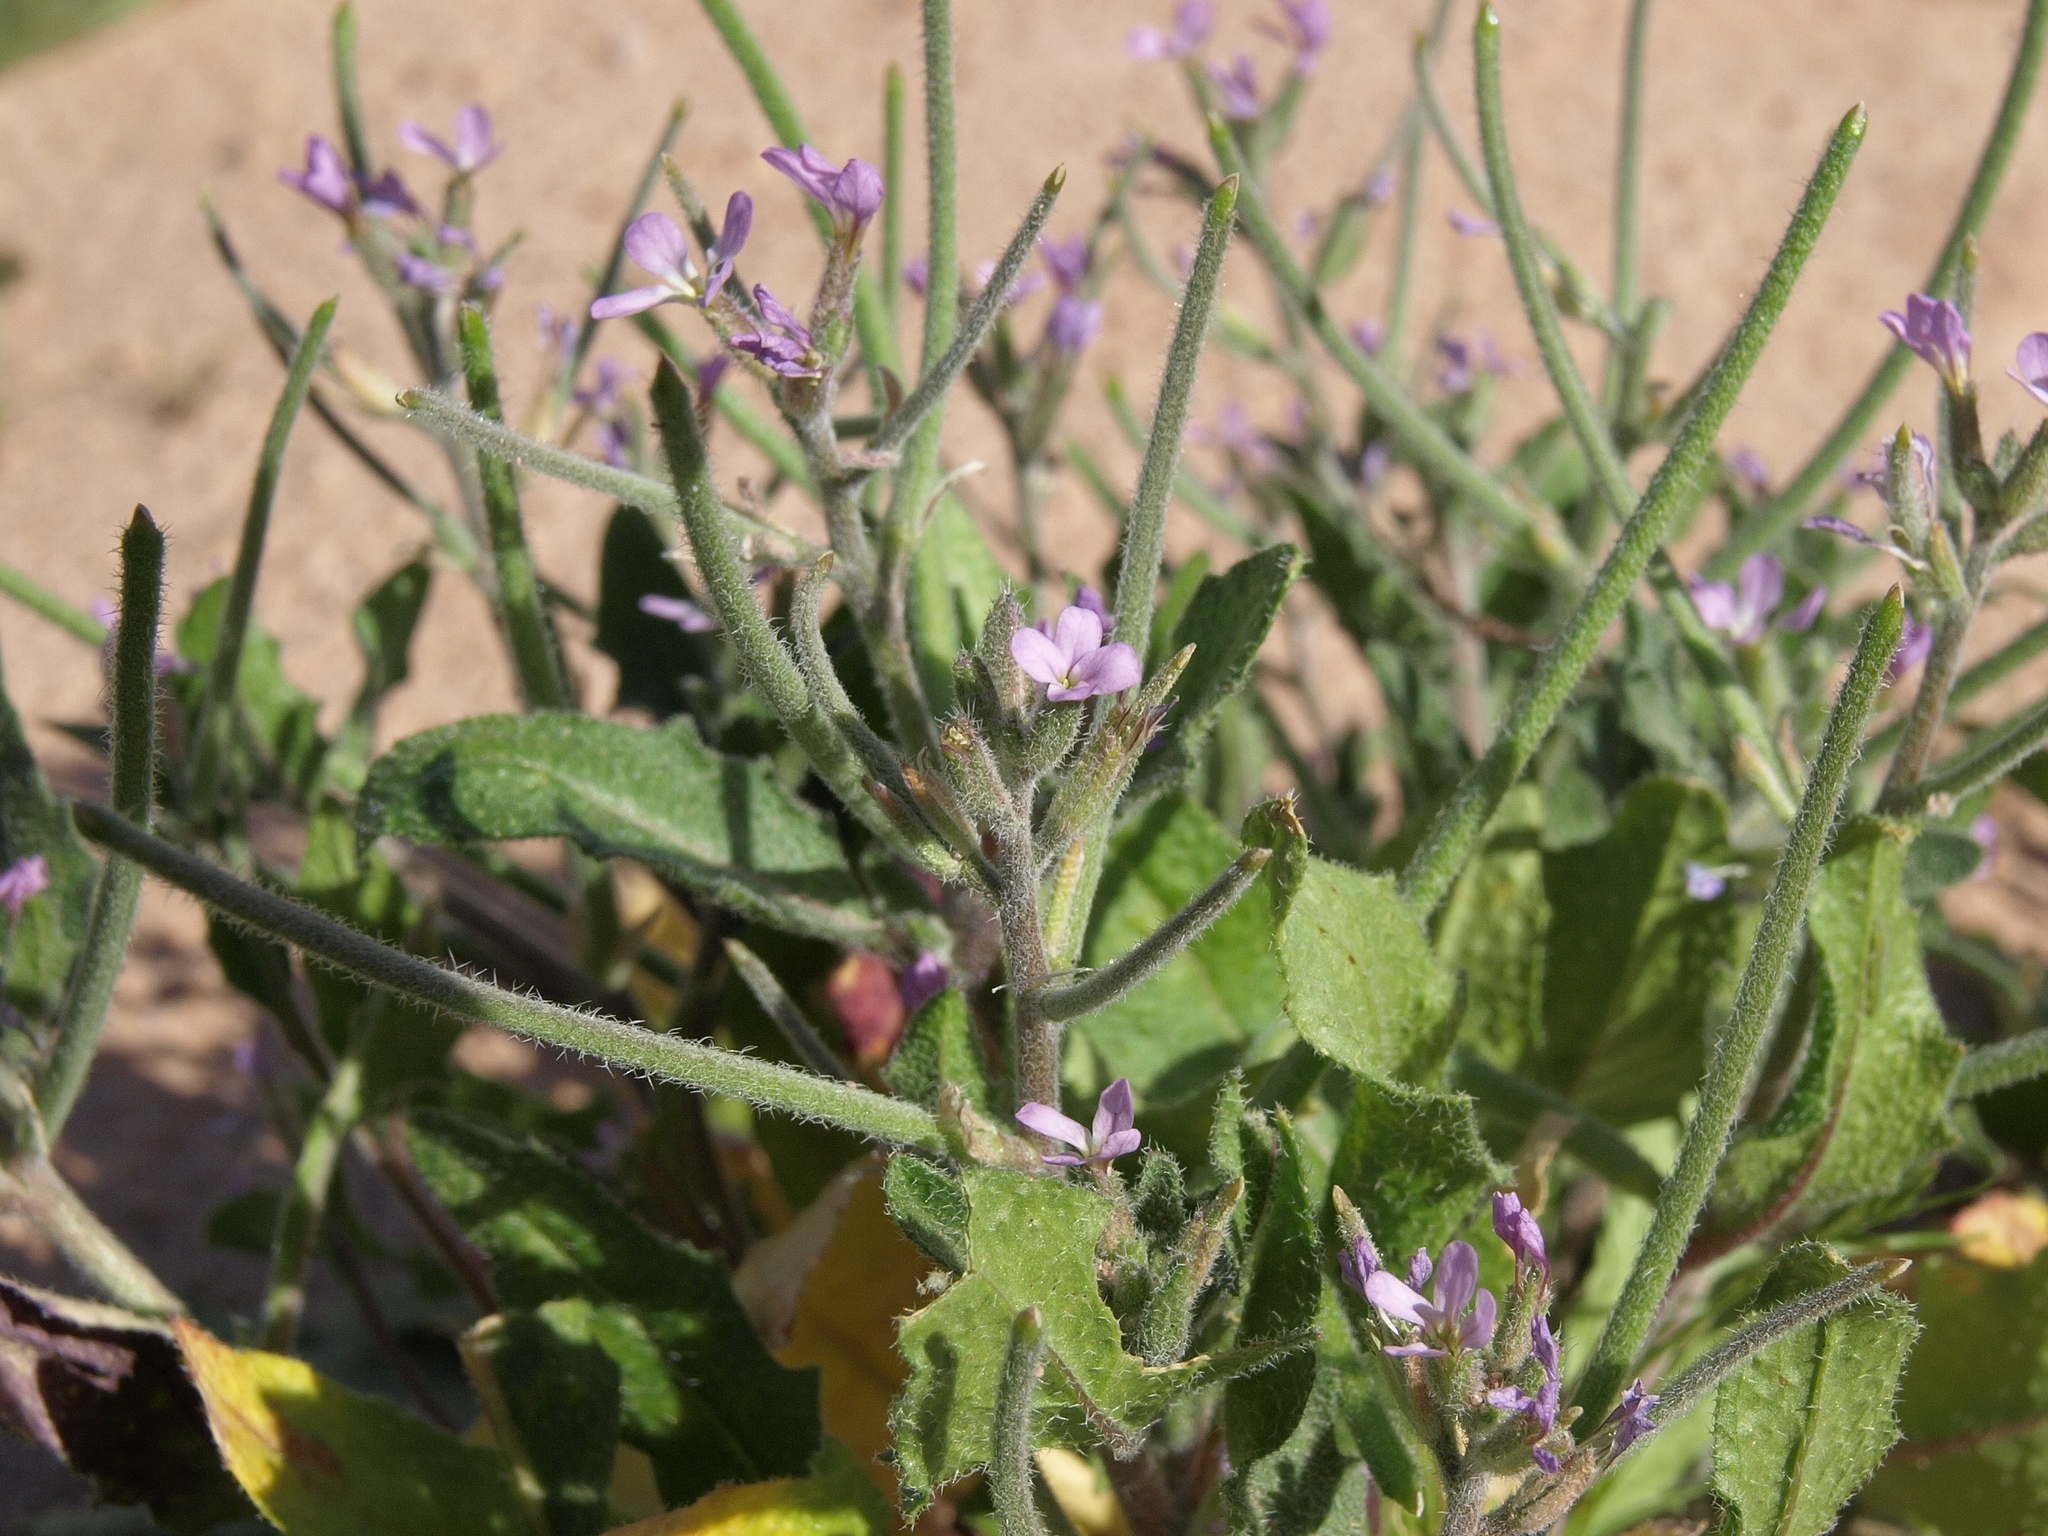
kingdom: Plantae
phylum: Tracheophyta
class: Magnoliopsida
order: Brassicales
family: Brassicaceae
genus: Strigosella
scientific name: Strigosella africana
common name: African mustard
